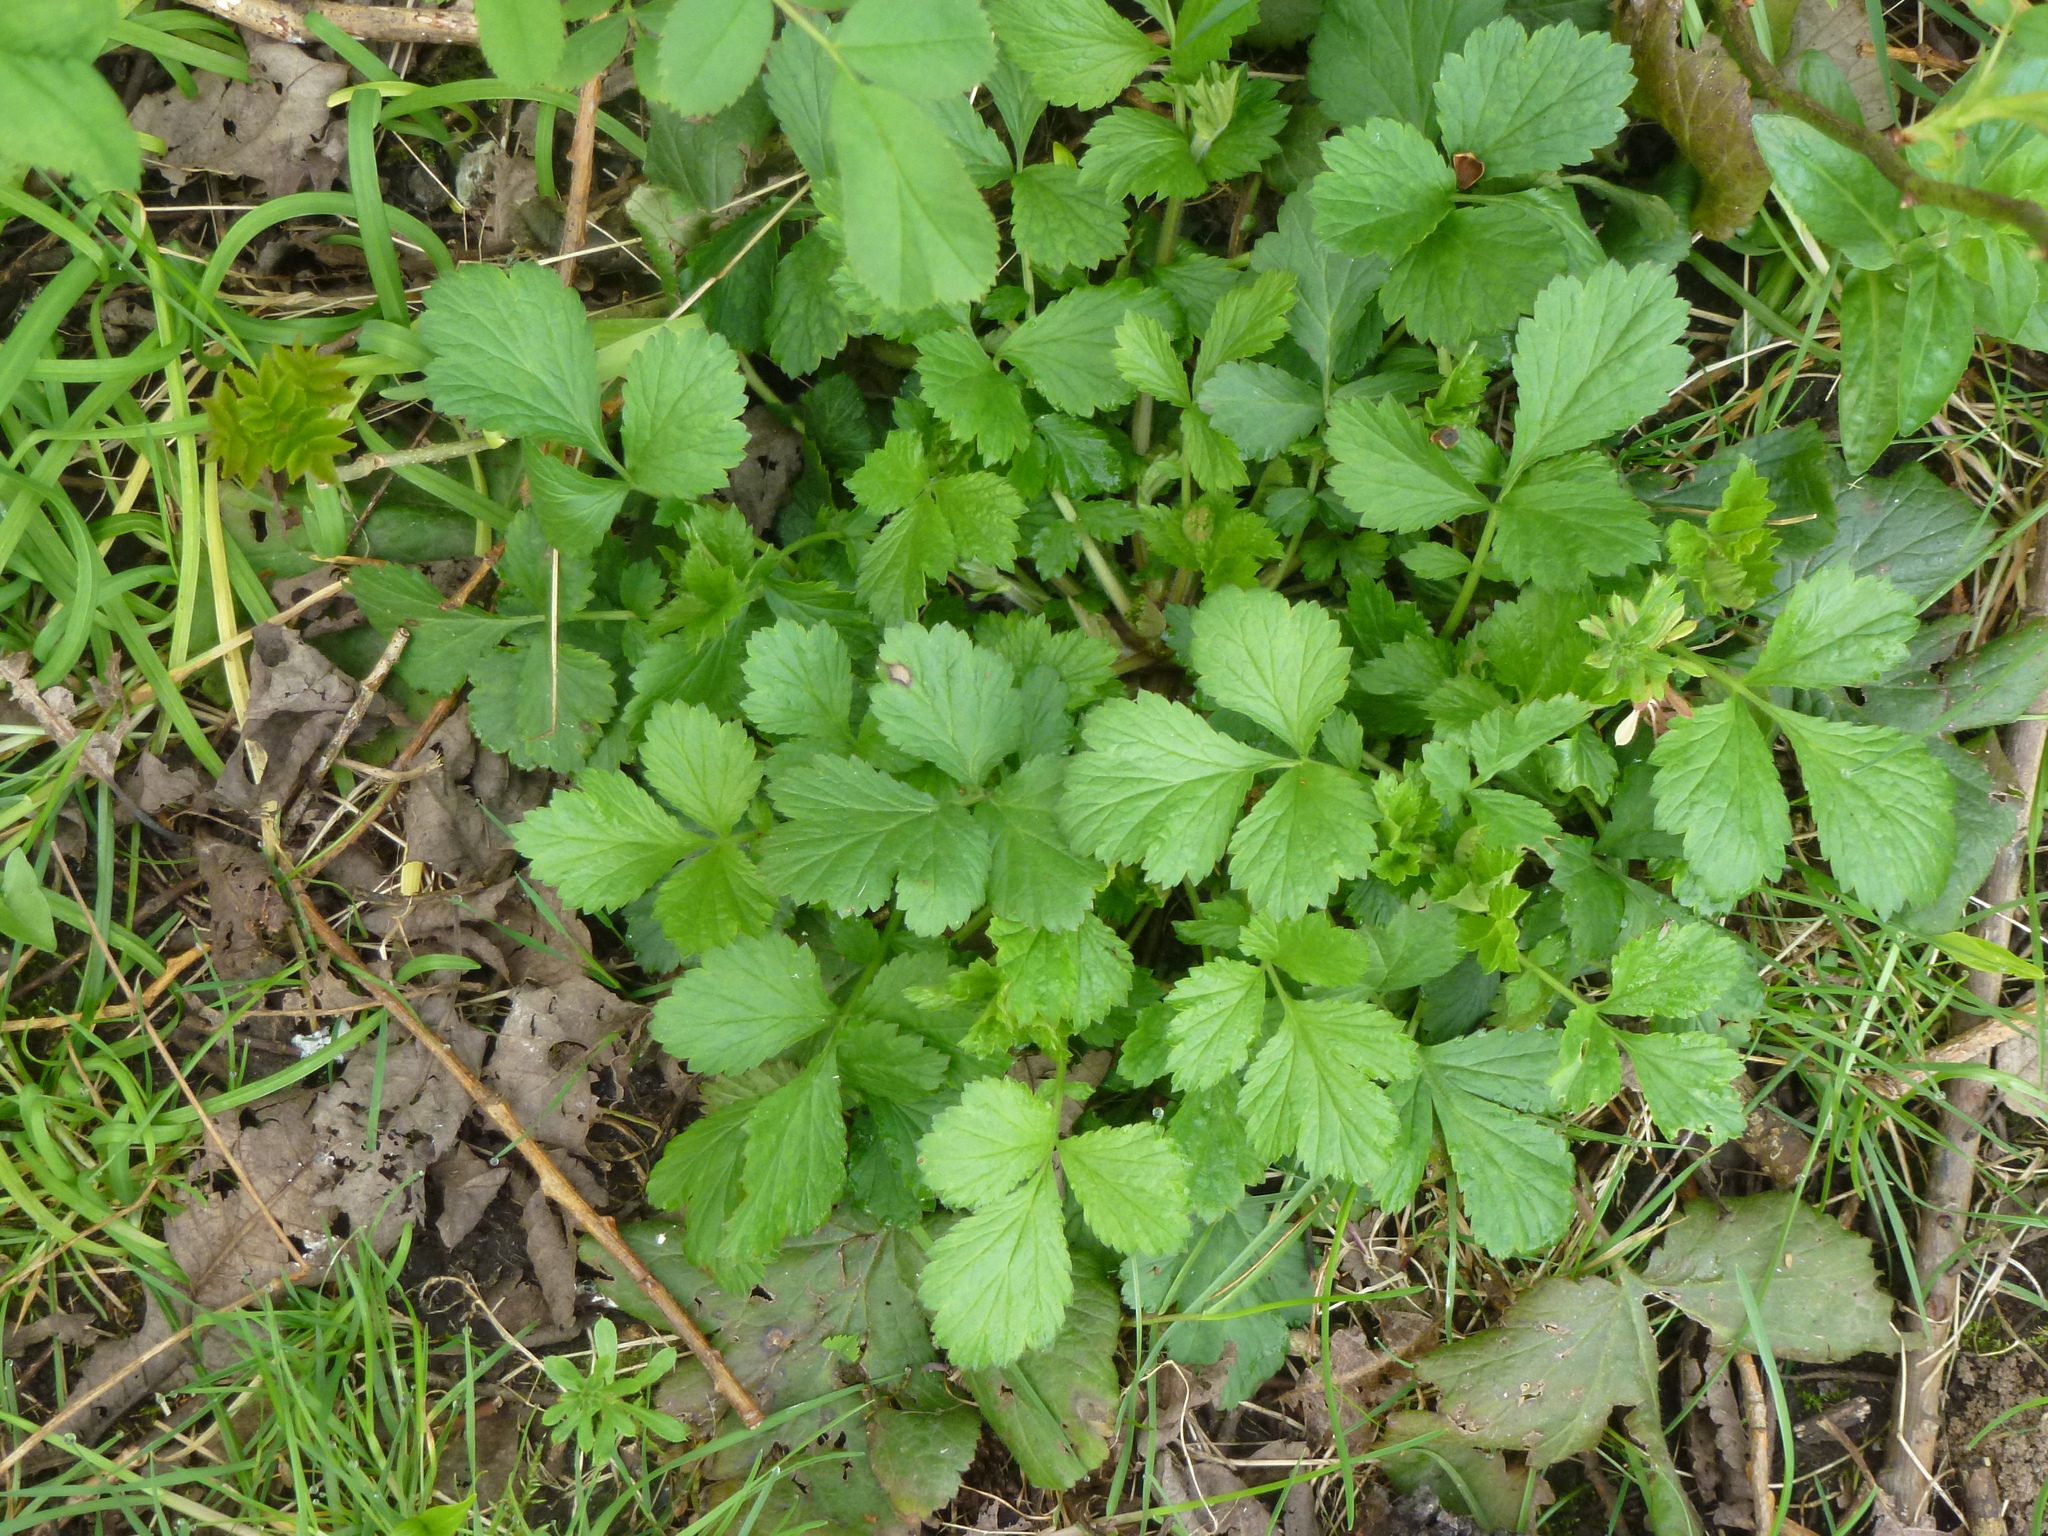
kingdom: Plantae
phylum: Tracheophyta
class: Magnoliopsida
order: Rosales
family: Rosaceae
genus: Geum
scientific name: Geum urbanum
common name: Wood avens
